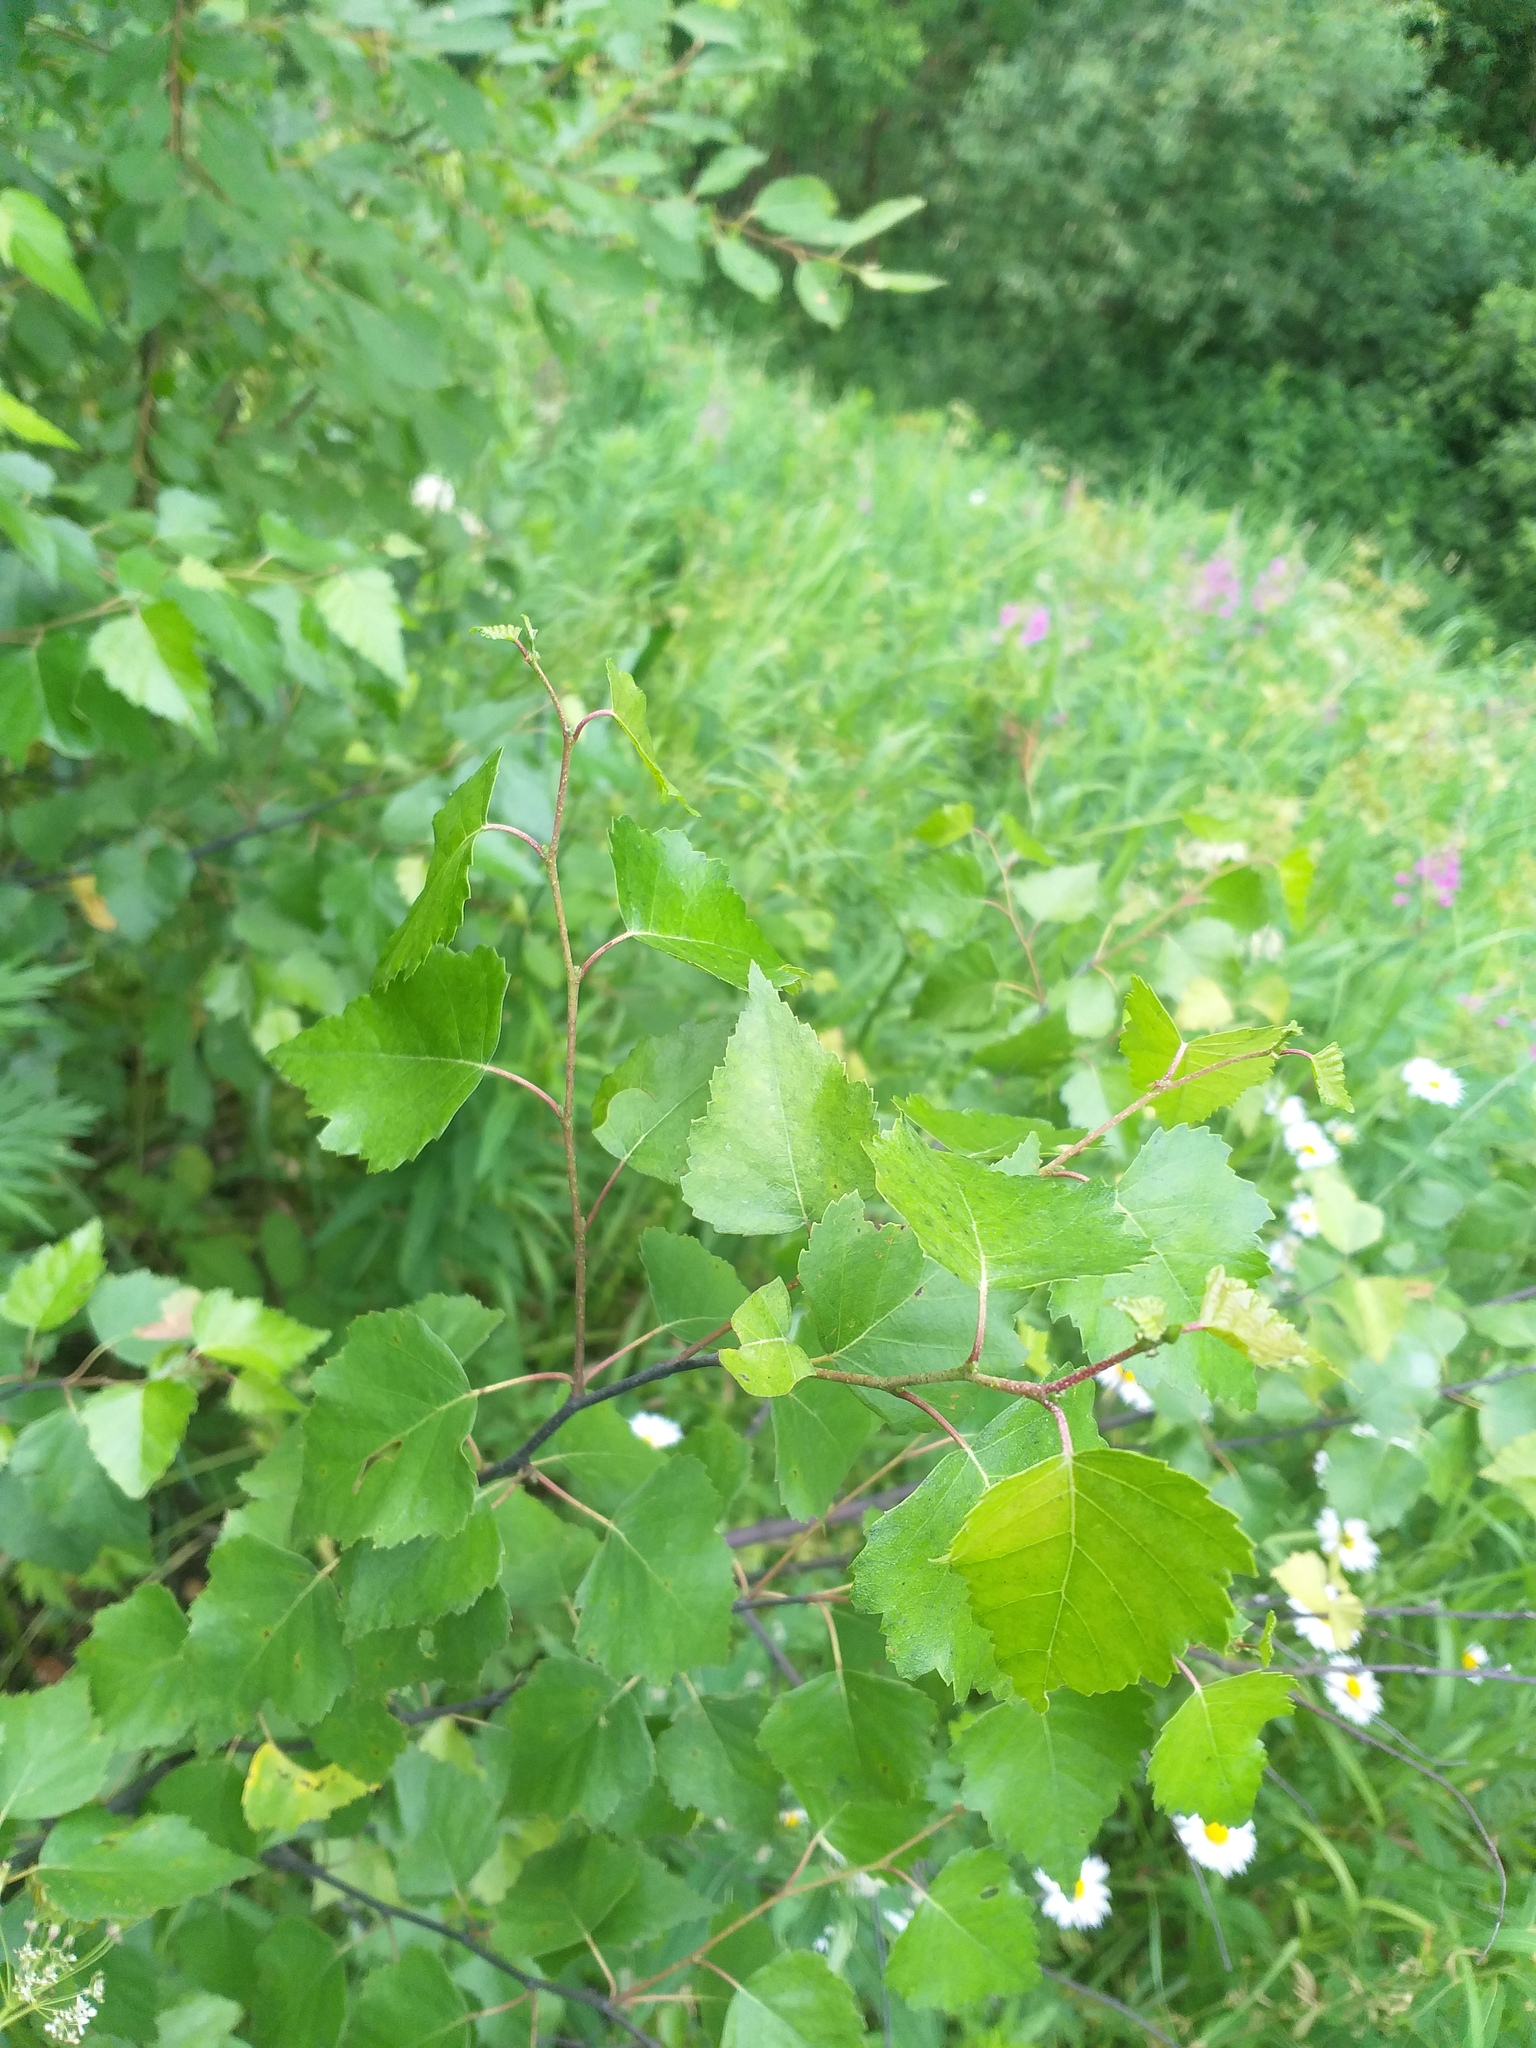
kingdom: Plantae
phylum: Tracheophyta
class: Magnoliopsida
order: Fagales
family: Betulaceae
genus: Betula
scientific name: Betula pendula
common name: Silver birch
